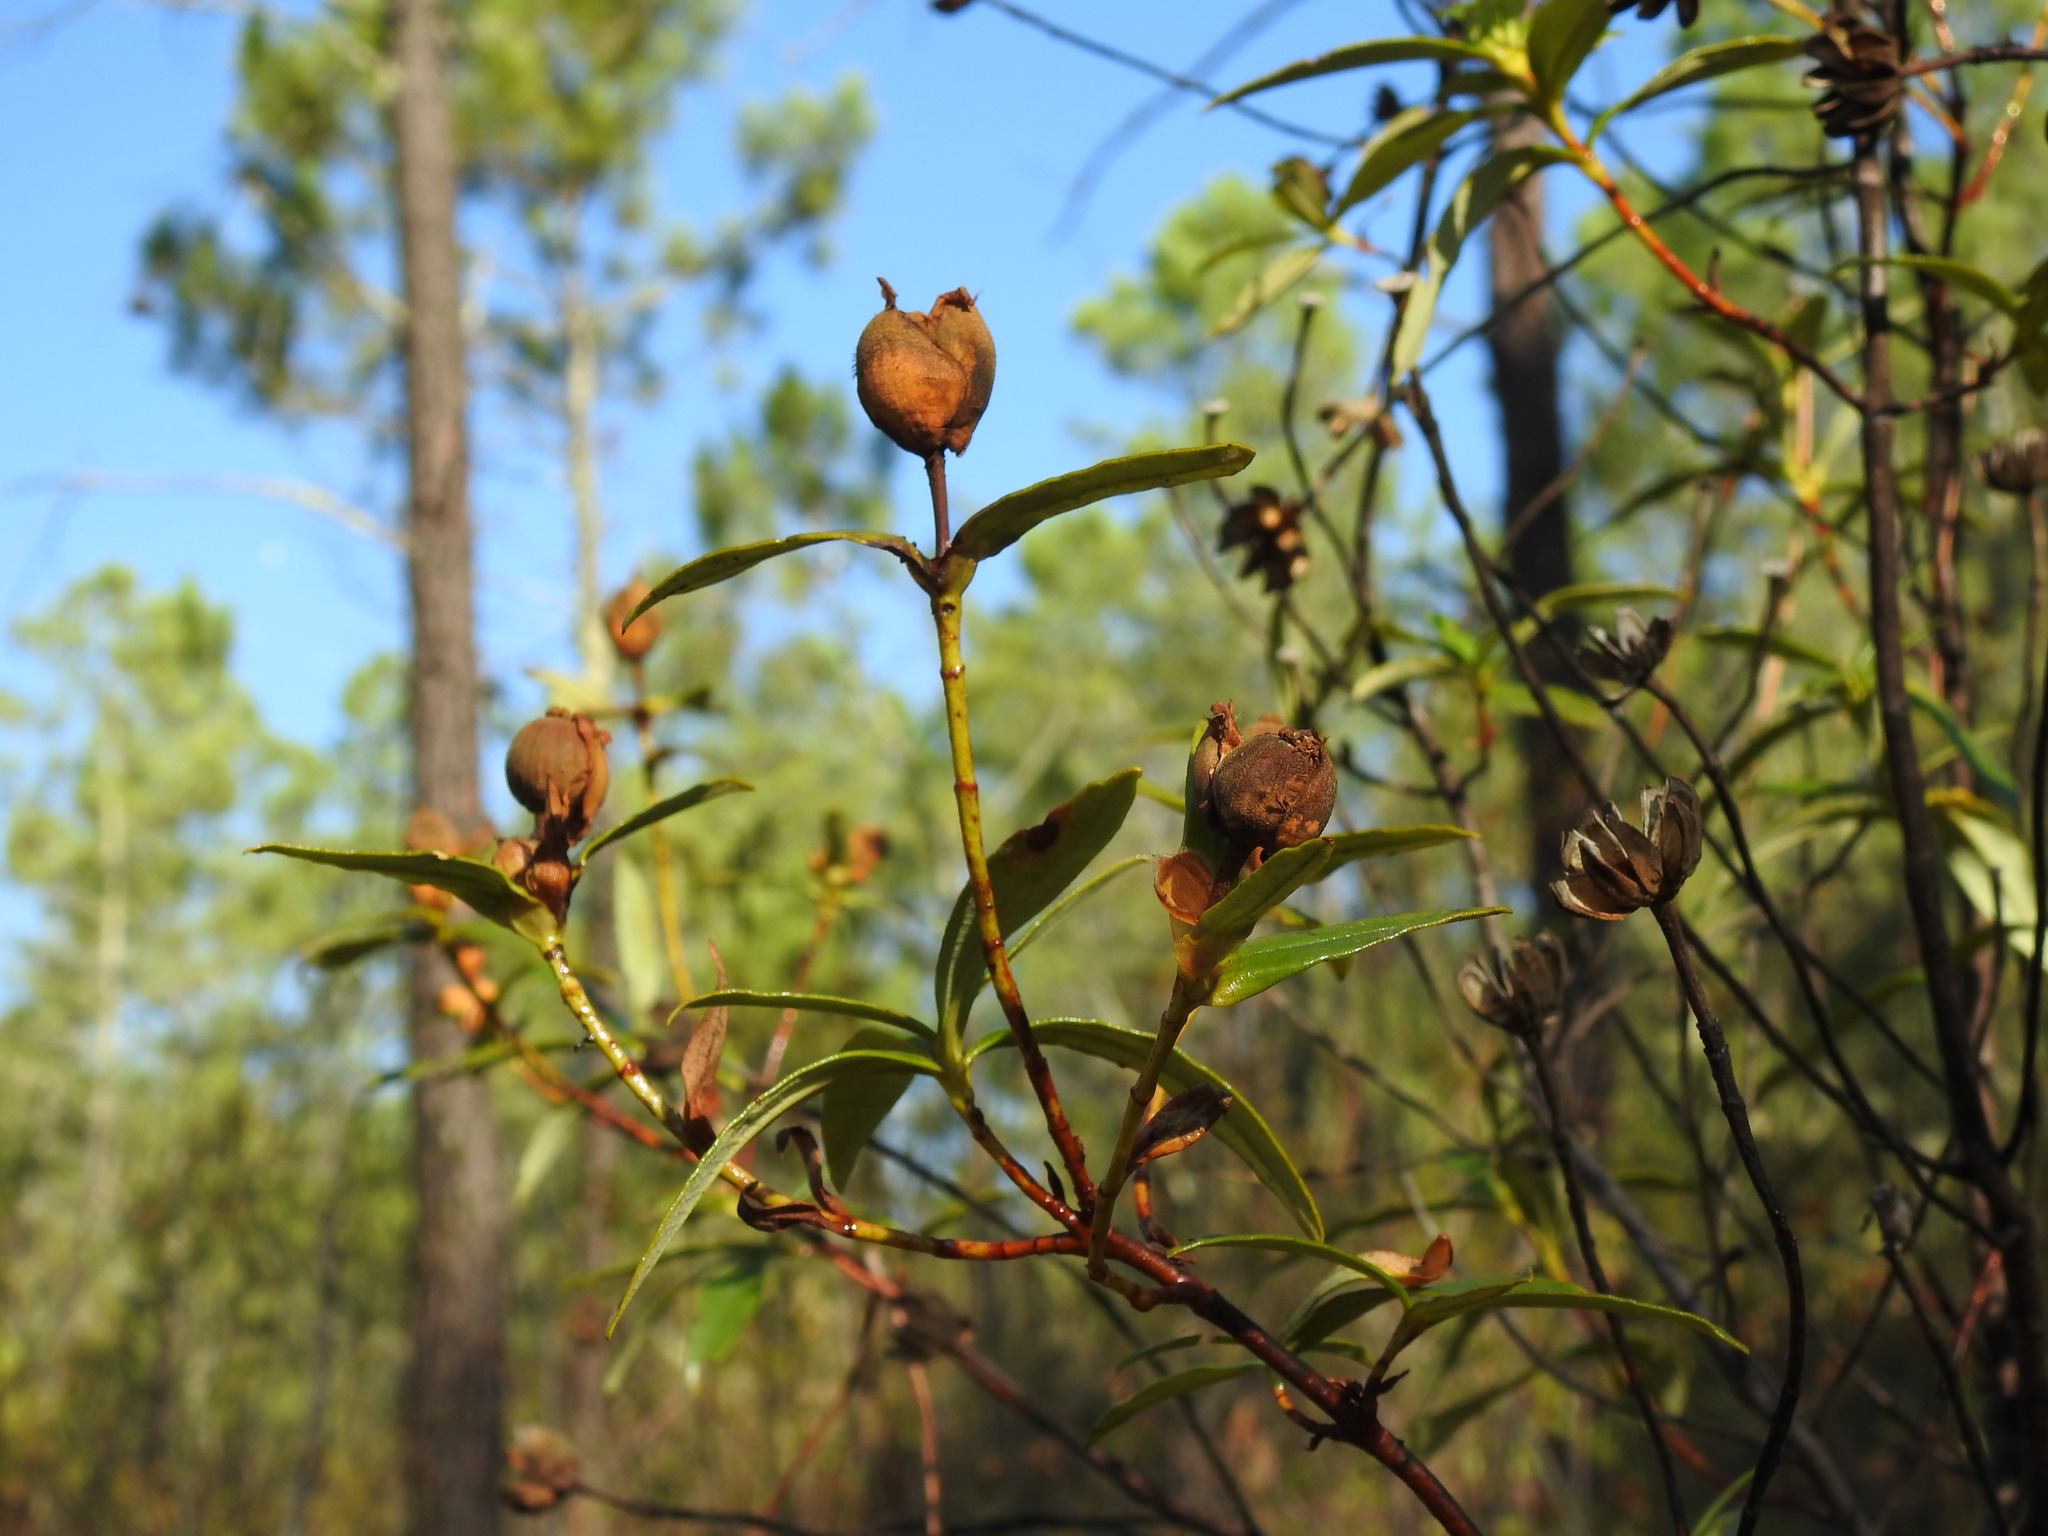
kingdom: Plantae
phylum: Tracheophyta
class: Magnoliopsida
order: Malvales
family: Cistaceae
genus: Cistus
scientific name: Cistus ladanifer
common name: Common gum cistus
